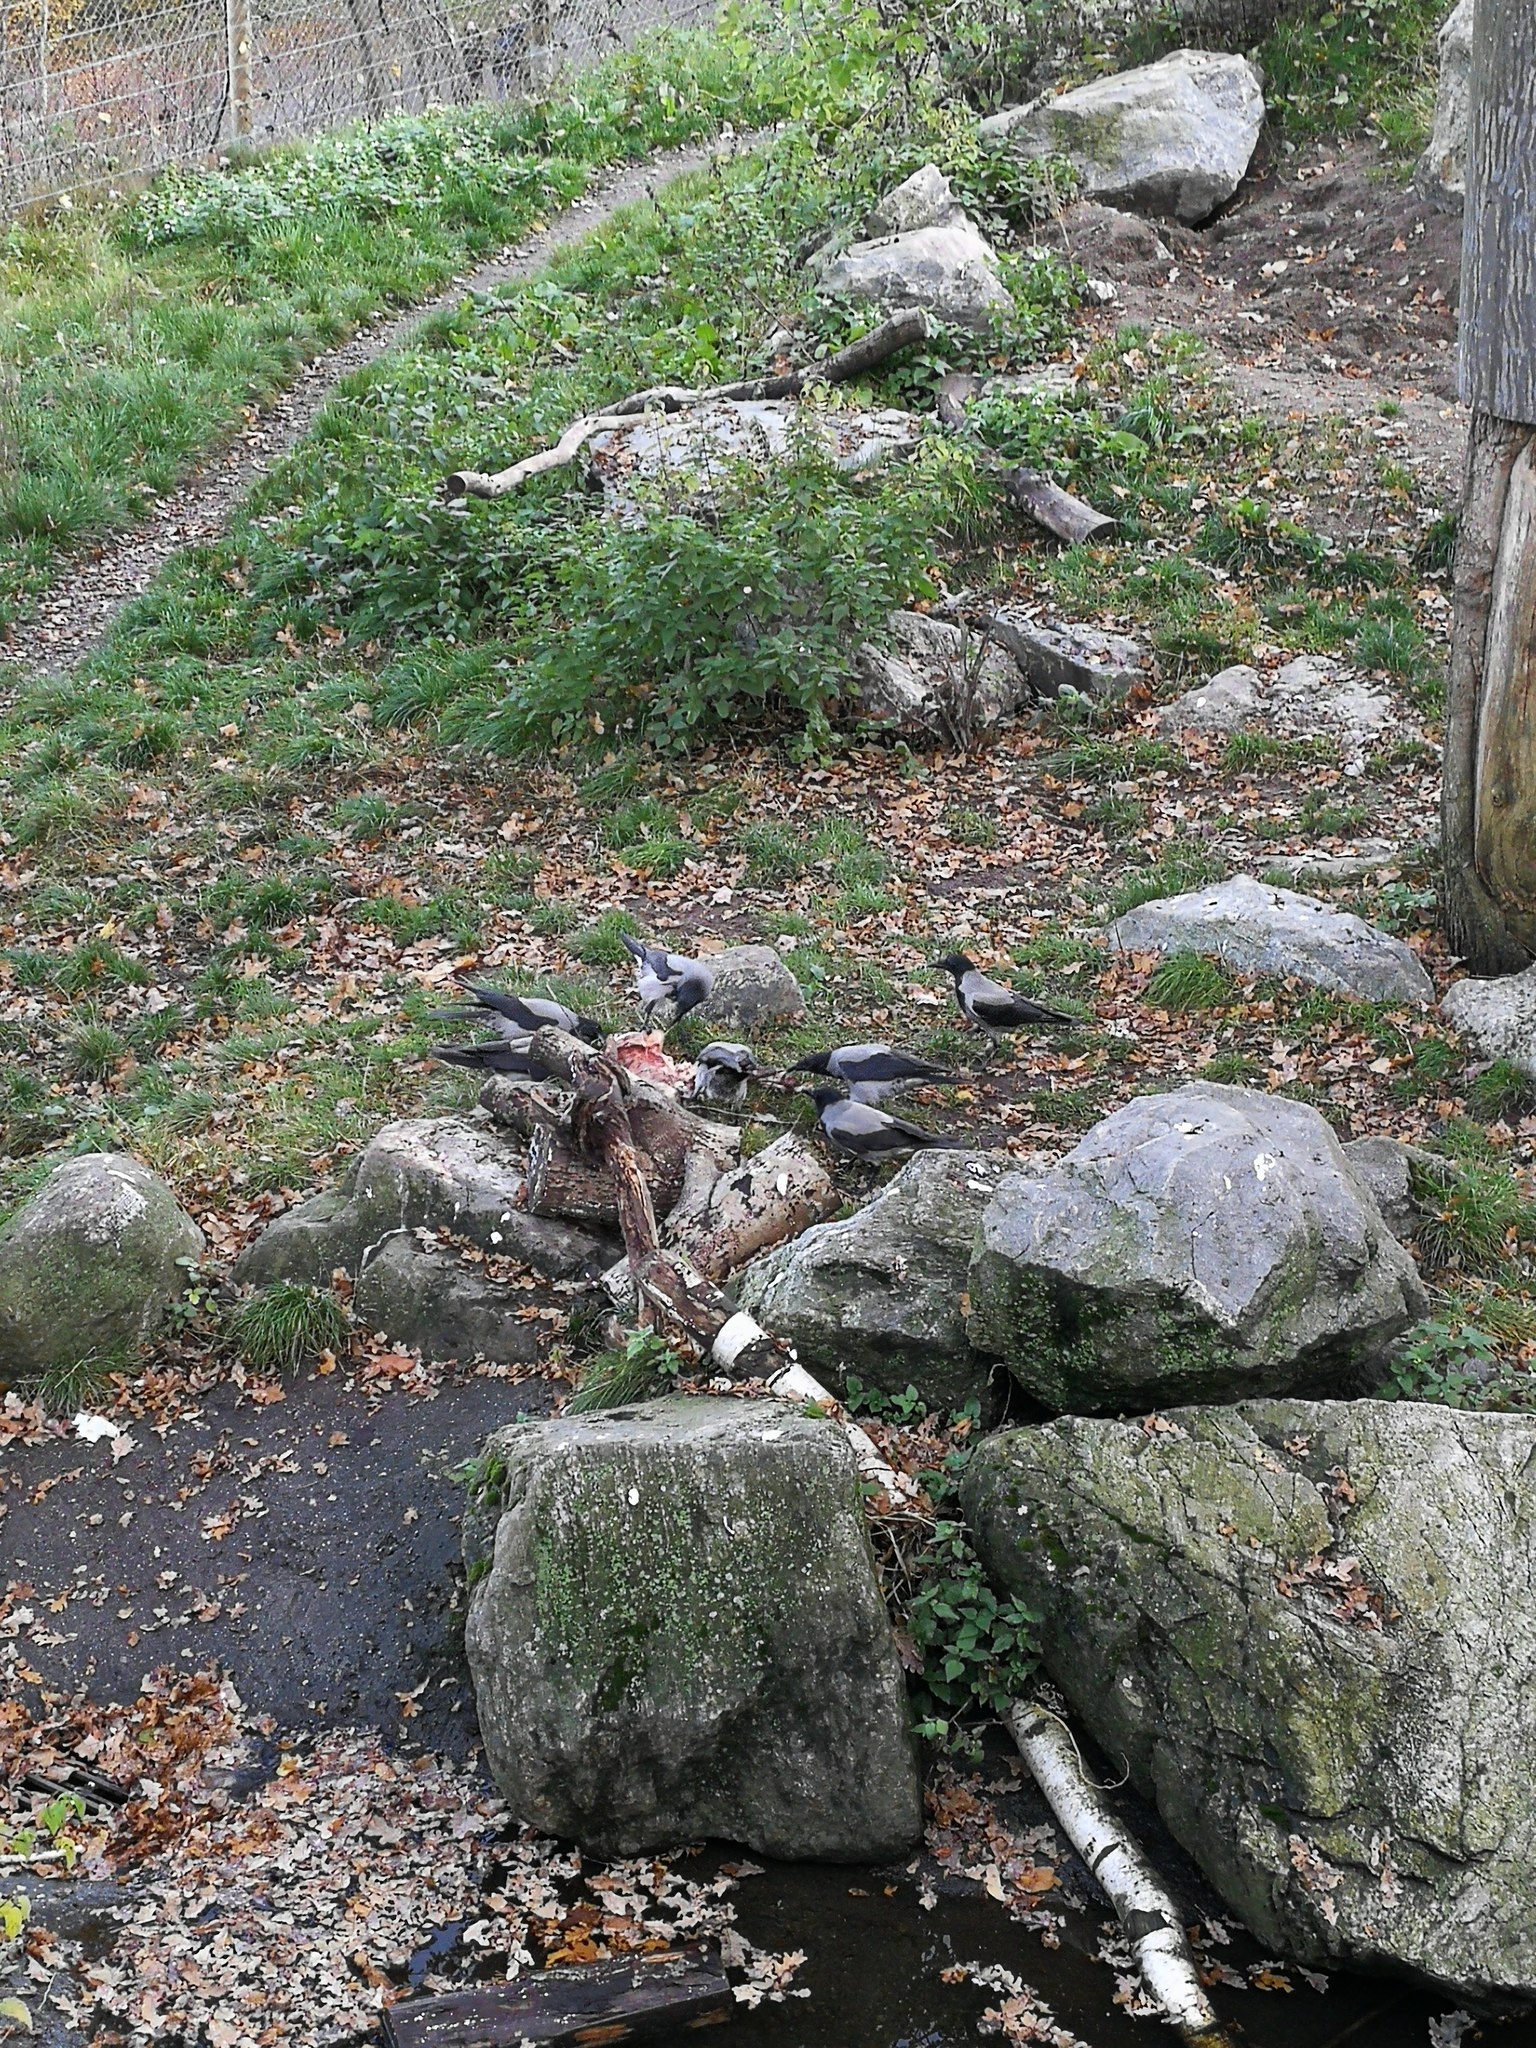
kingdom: Animalia
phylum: Chordata
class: Aves
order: Passeriformes
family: Corvidae
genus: Corvus
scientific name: Corvus cornix
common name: Hooded crow
